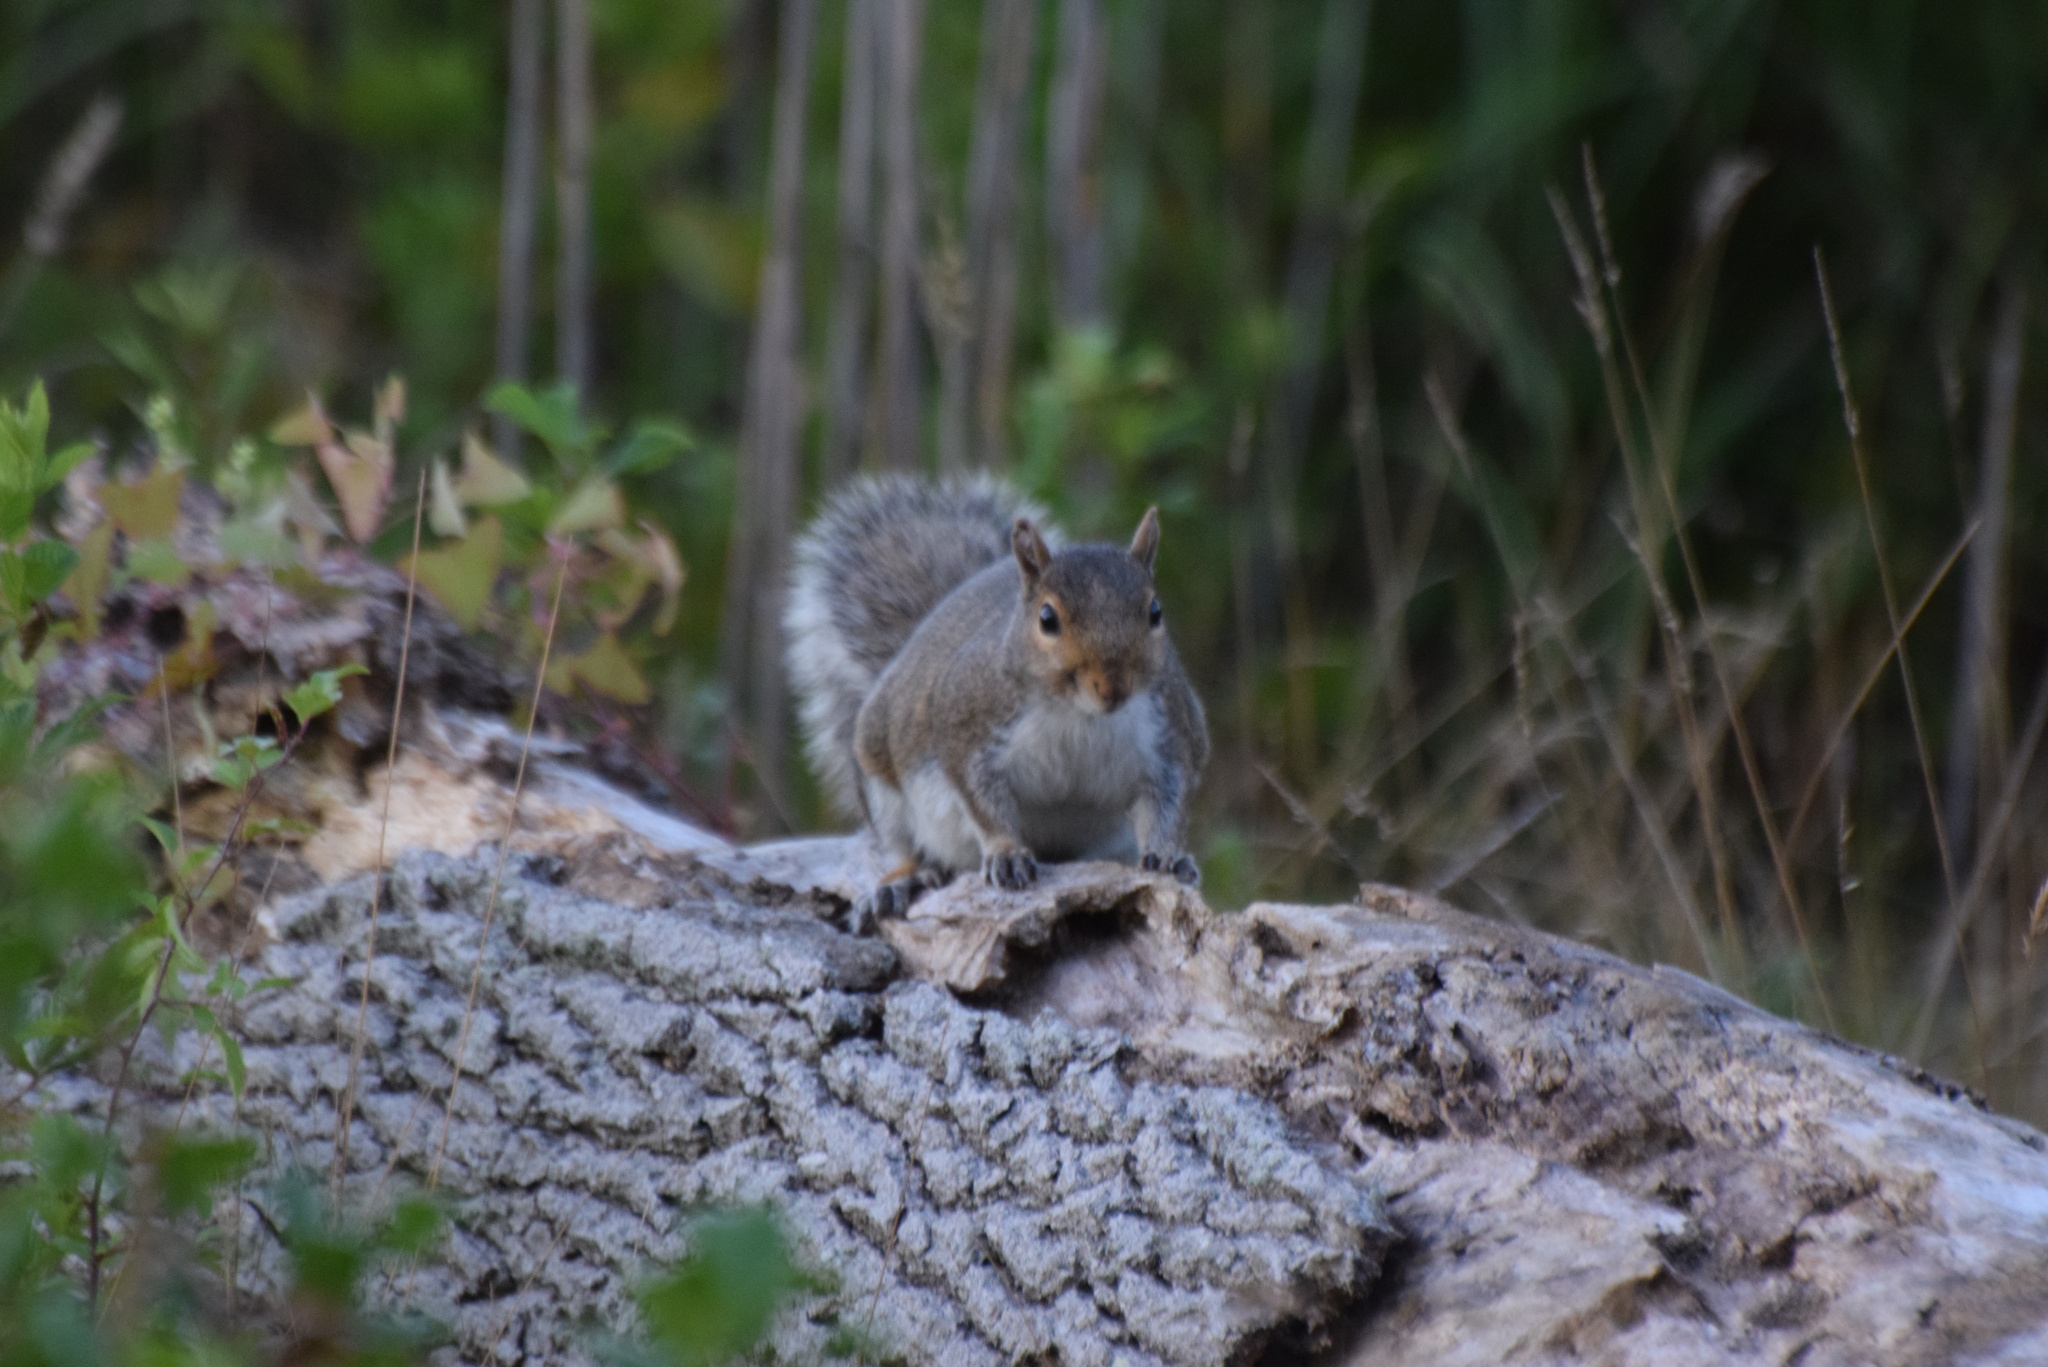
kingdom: Animalia
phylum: Chordata
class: Mammalia
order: Rodentia
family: Sciuridae
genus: Sciurus
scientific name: Sciurus carolinensis
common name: Eastern gray squirrel
